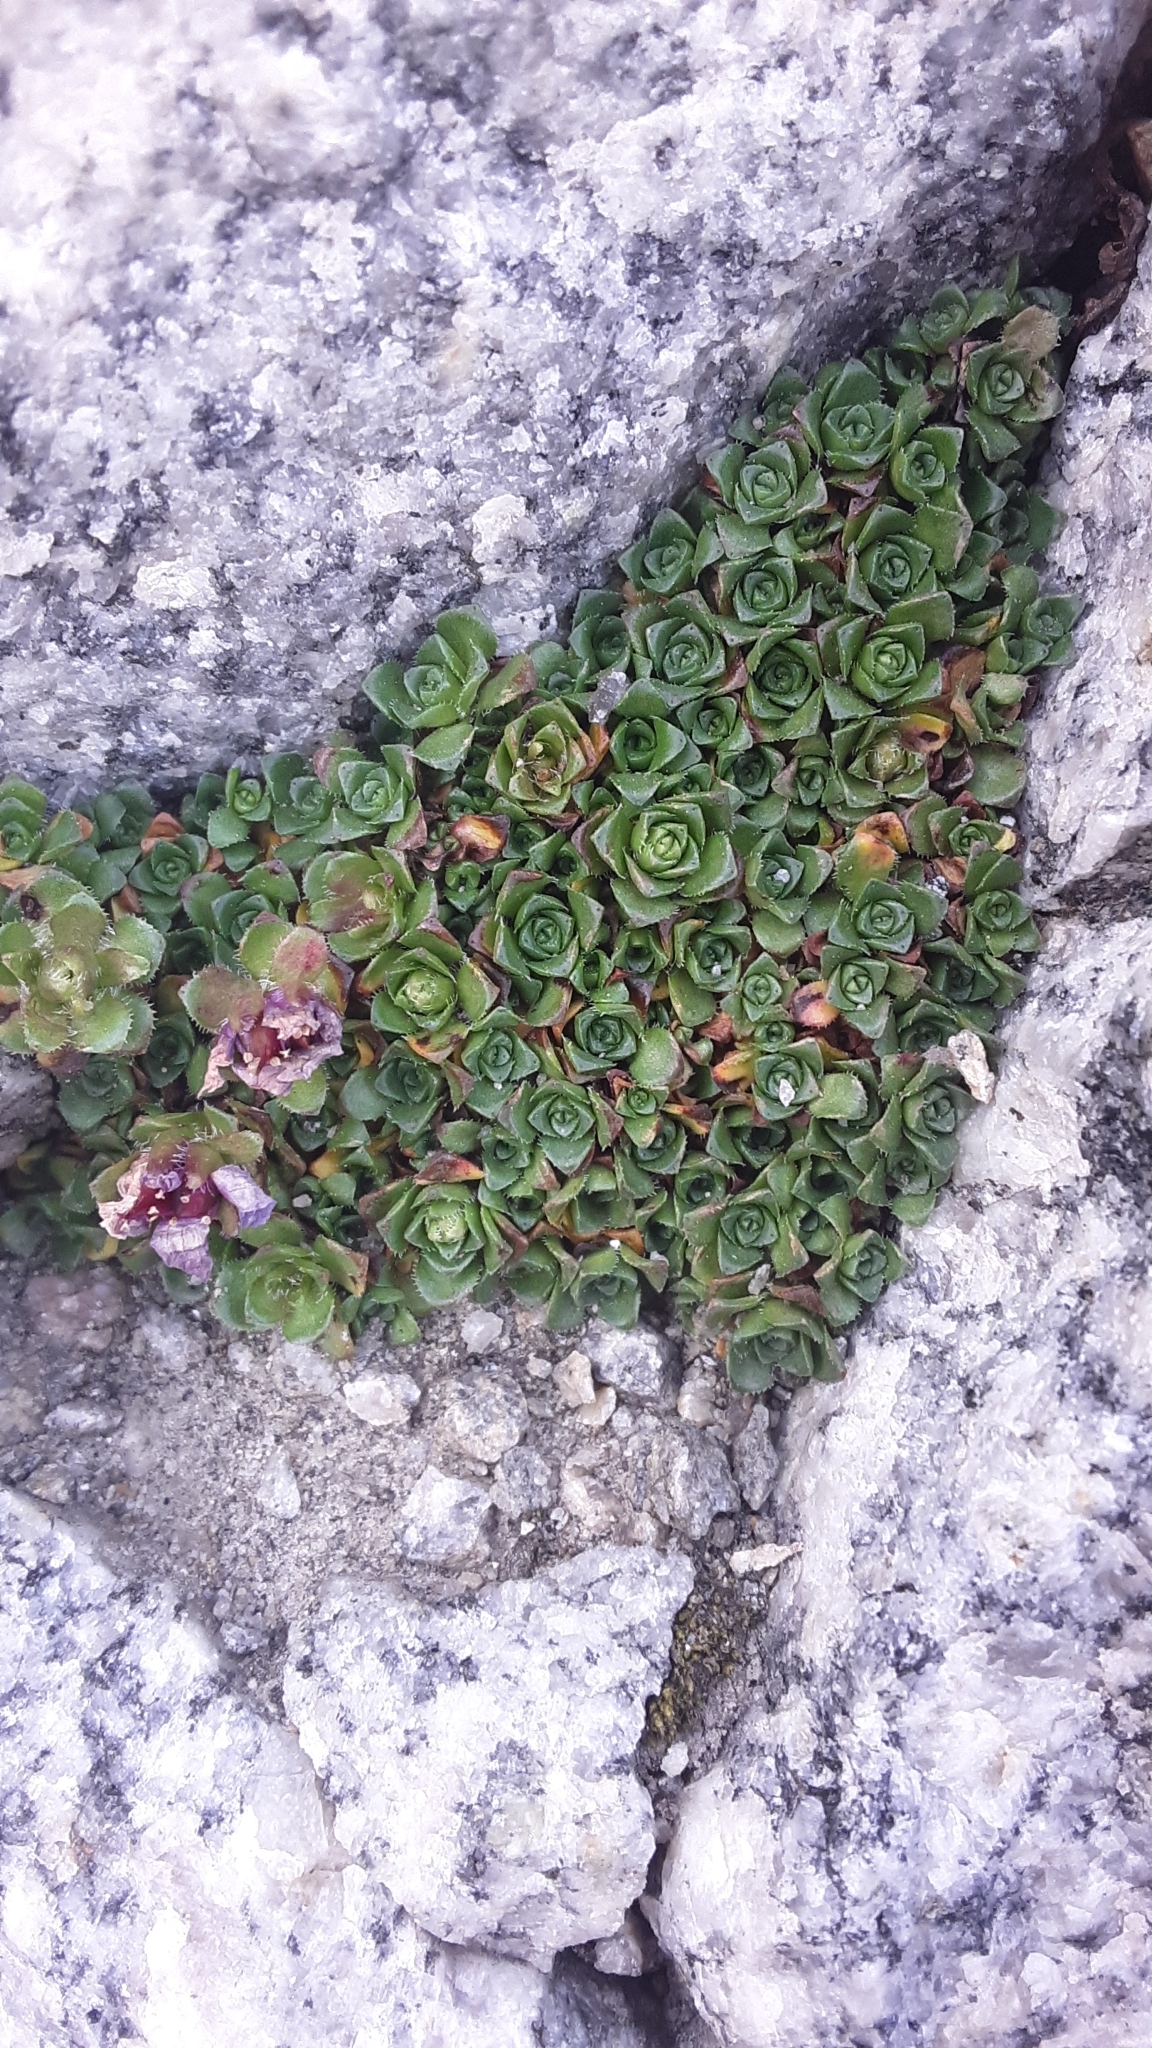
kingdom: Plantae
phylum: Tracheophyta
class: Magnoliopsida
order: Saxifragales
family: Saxifragaceae
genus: Saxifraga
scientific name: Saxifraga oppositifolia
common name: Purple saxifrage
